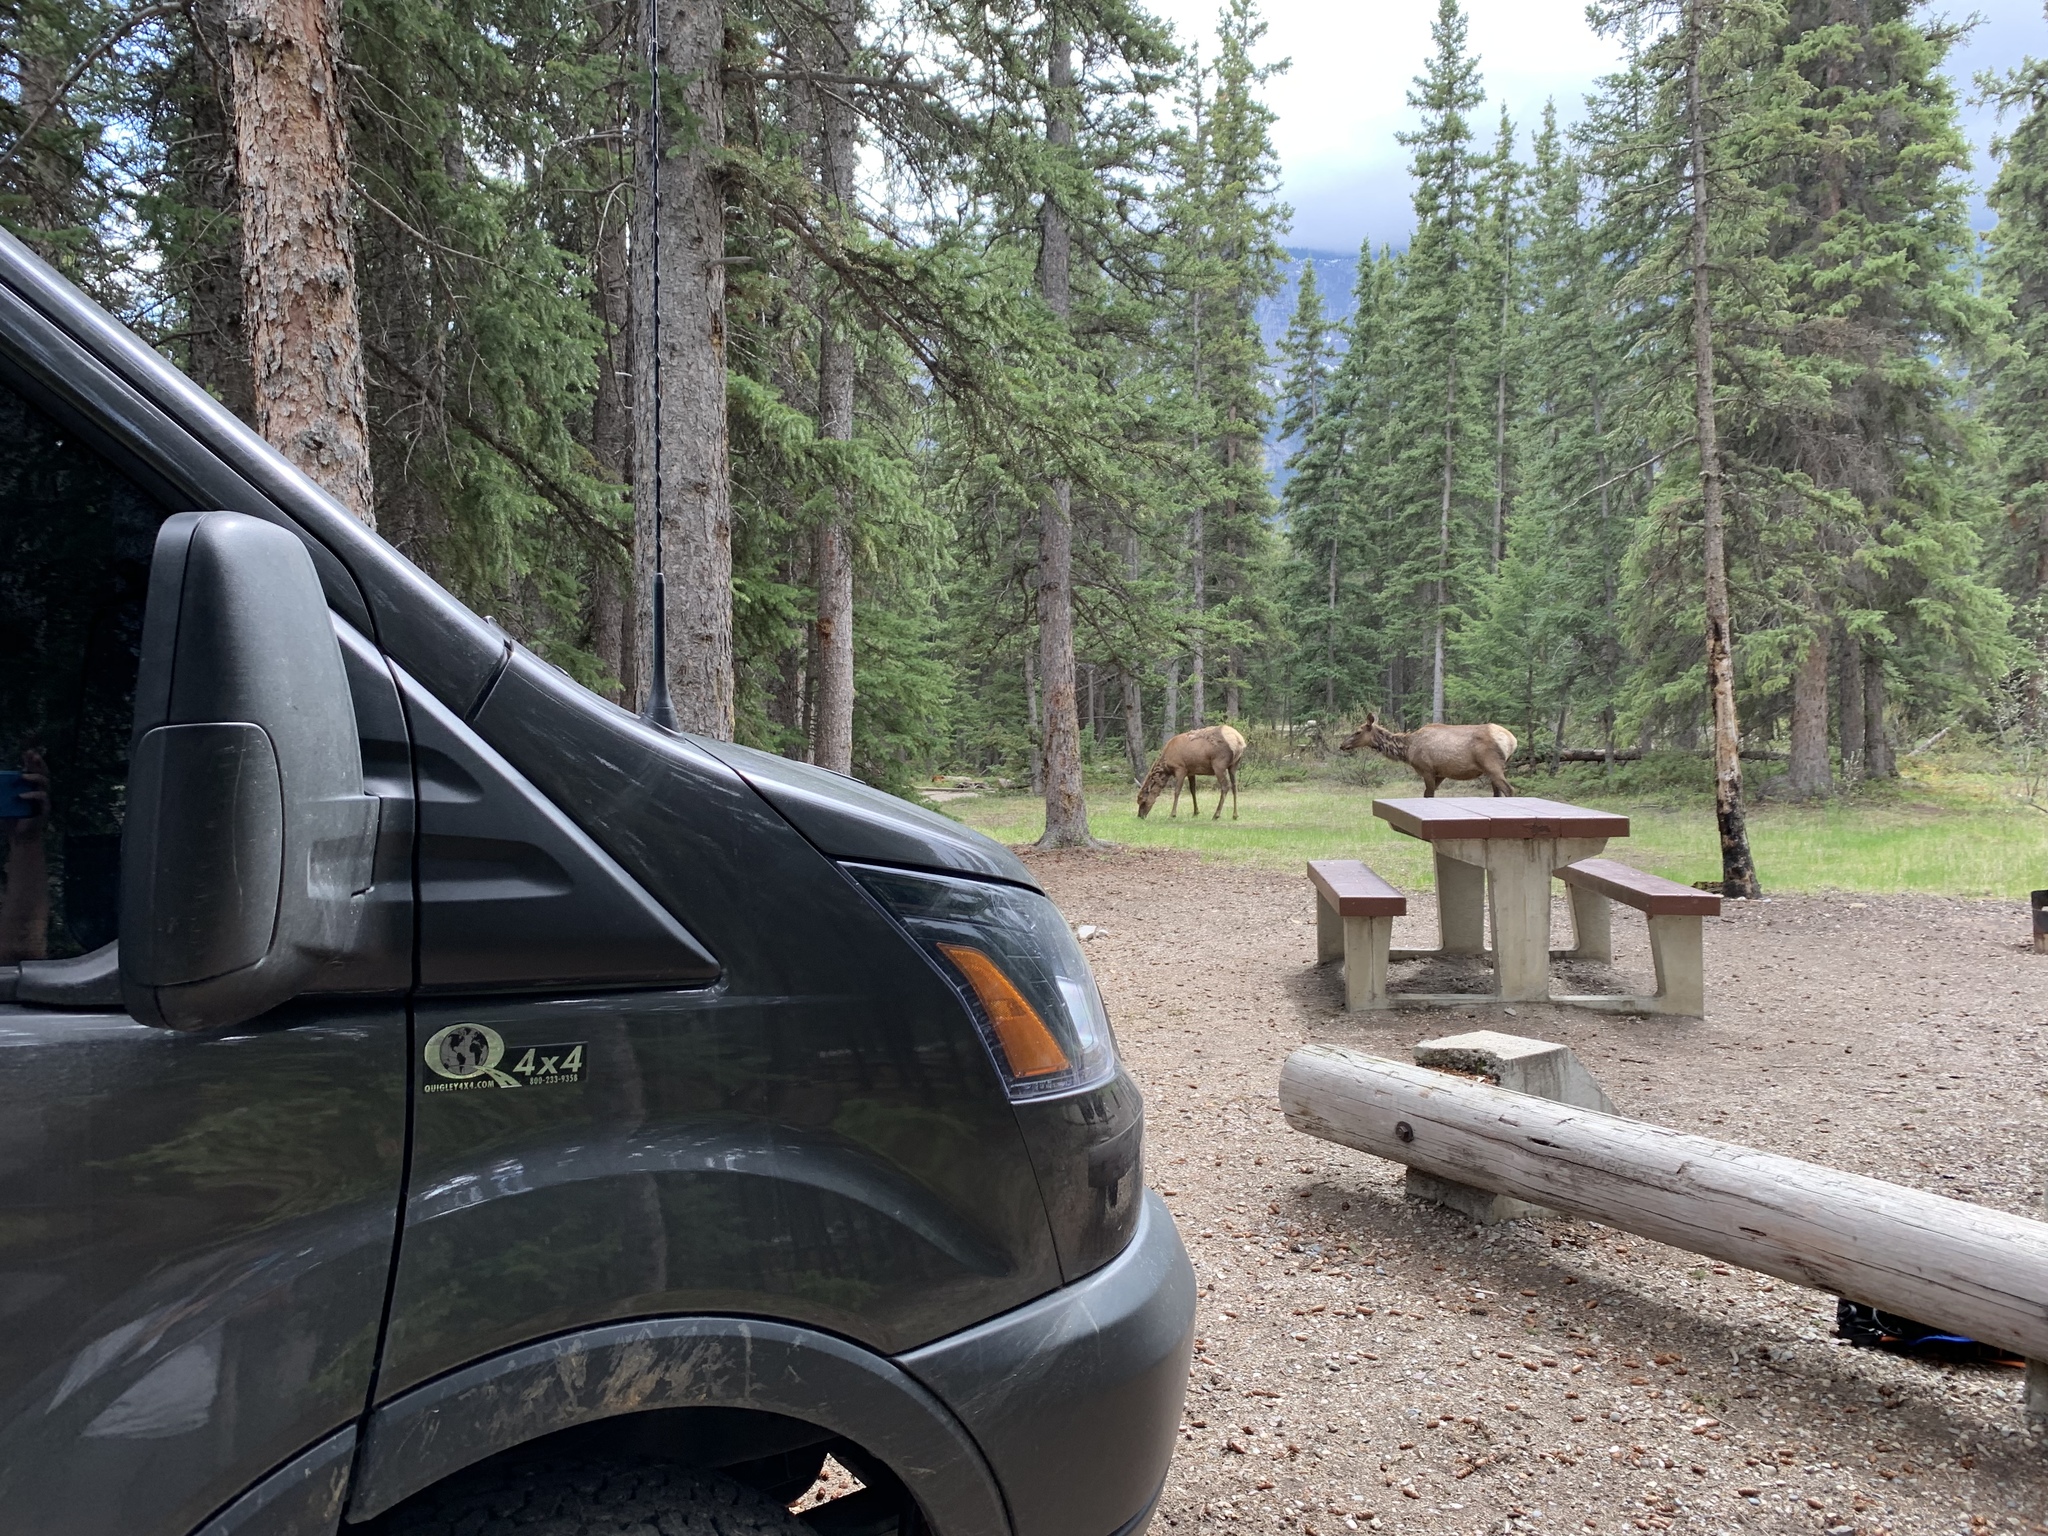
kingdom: Animalia
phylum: Chordata
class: Mammalia
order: Artiodactyla
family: Cervidae
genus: Cervus
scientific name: Cervus elaphus
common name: Red deer
